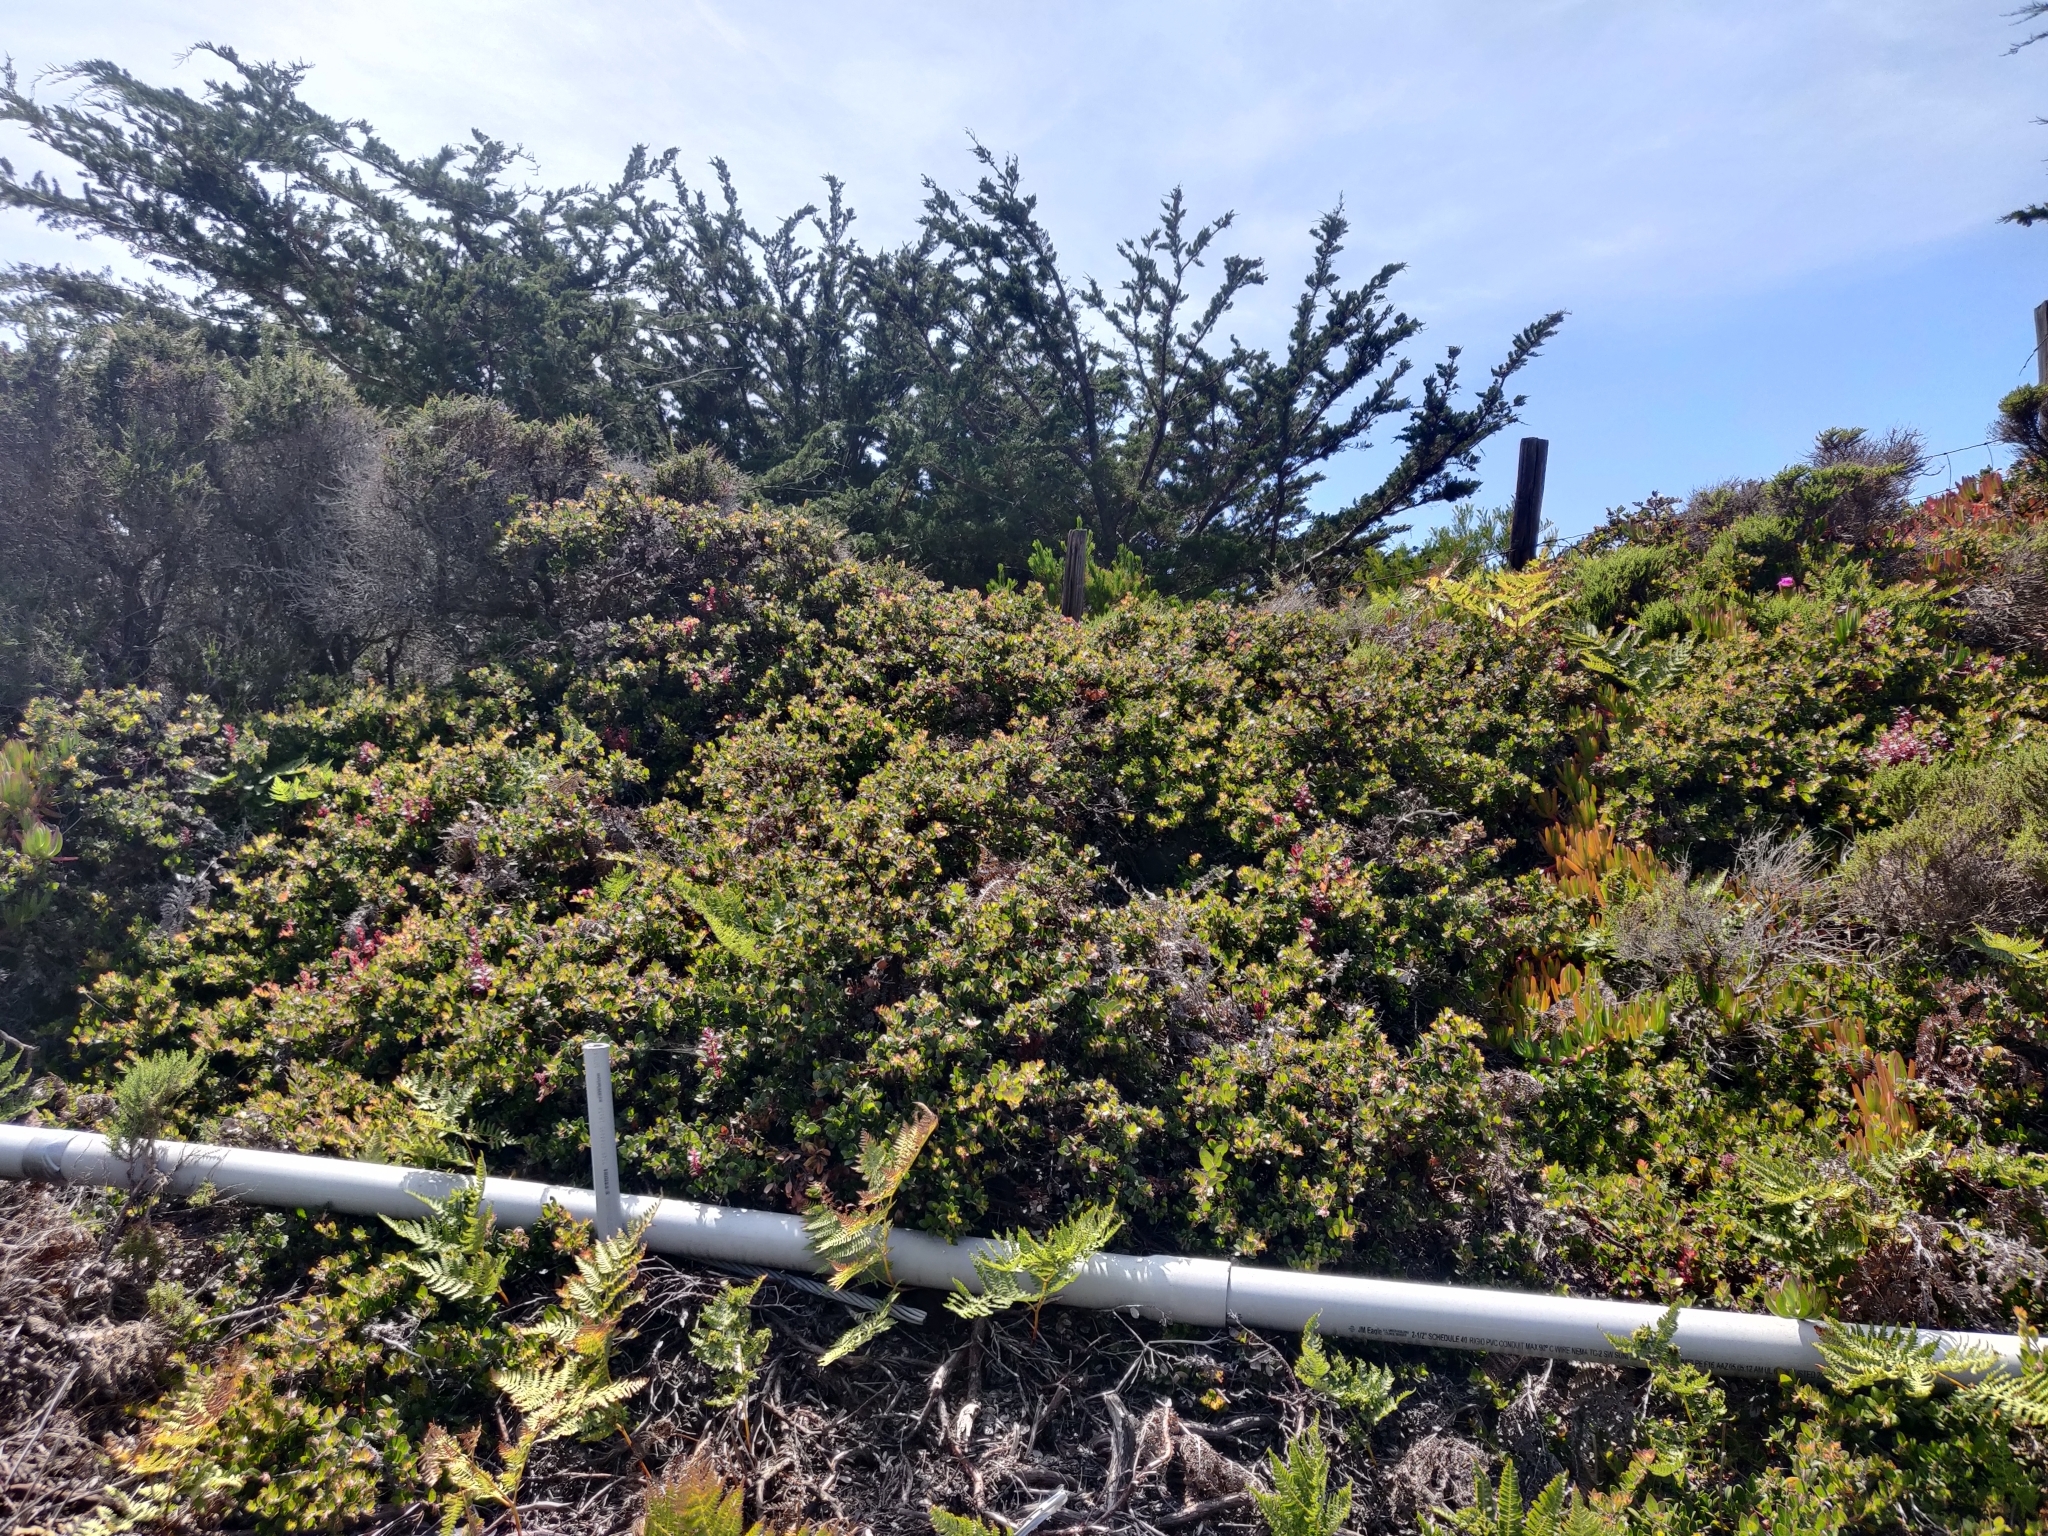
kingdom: Plantae
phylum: Tracheophyta
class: Magnoliopsida
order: Ericales
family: Ericaceae
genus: Arctostaphylos
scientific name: Arctostaphylos edmundsii
